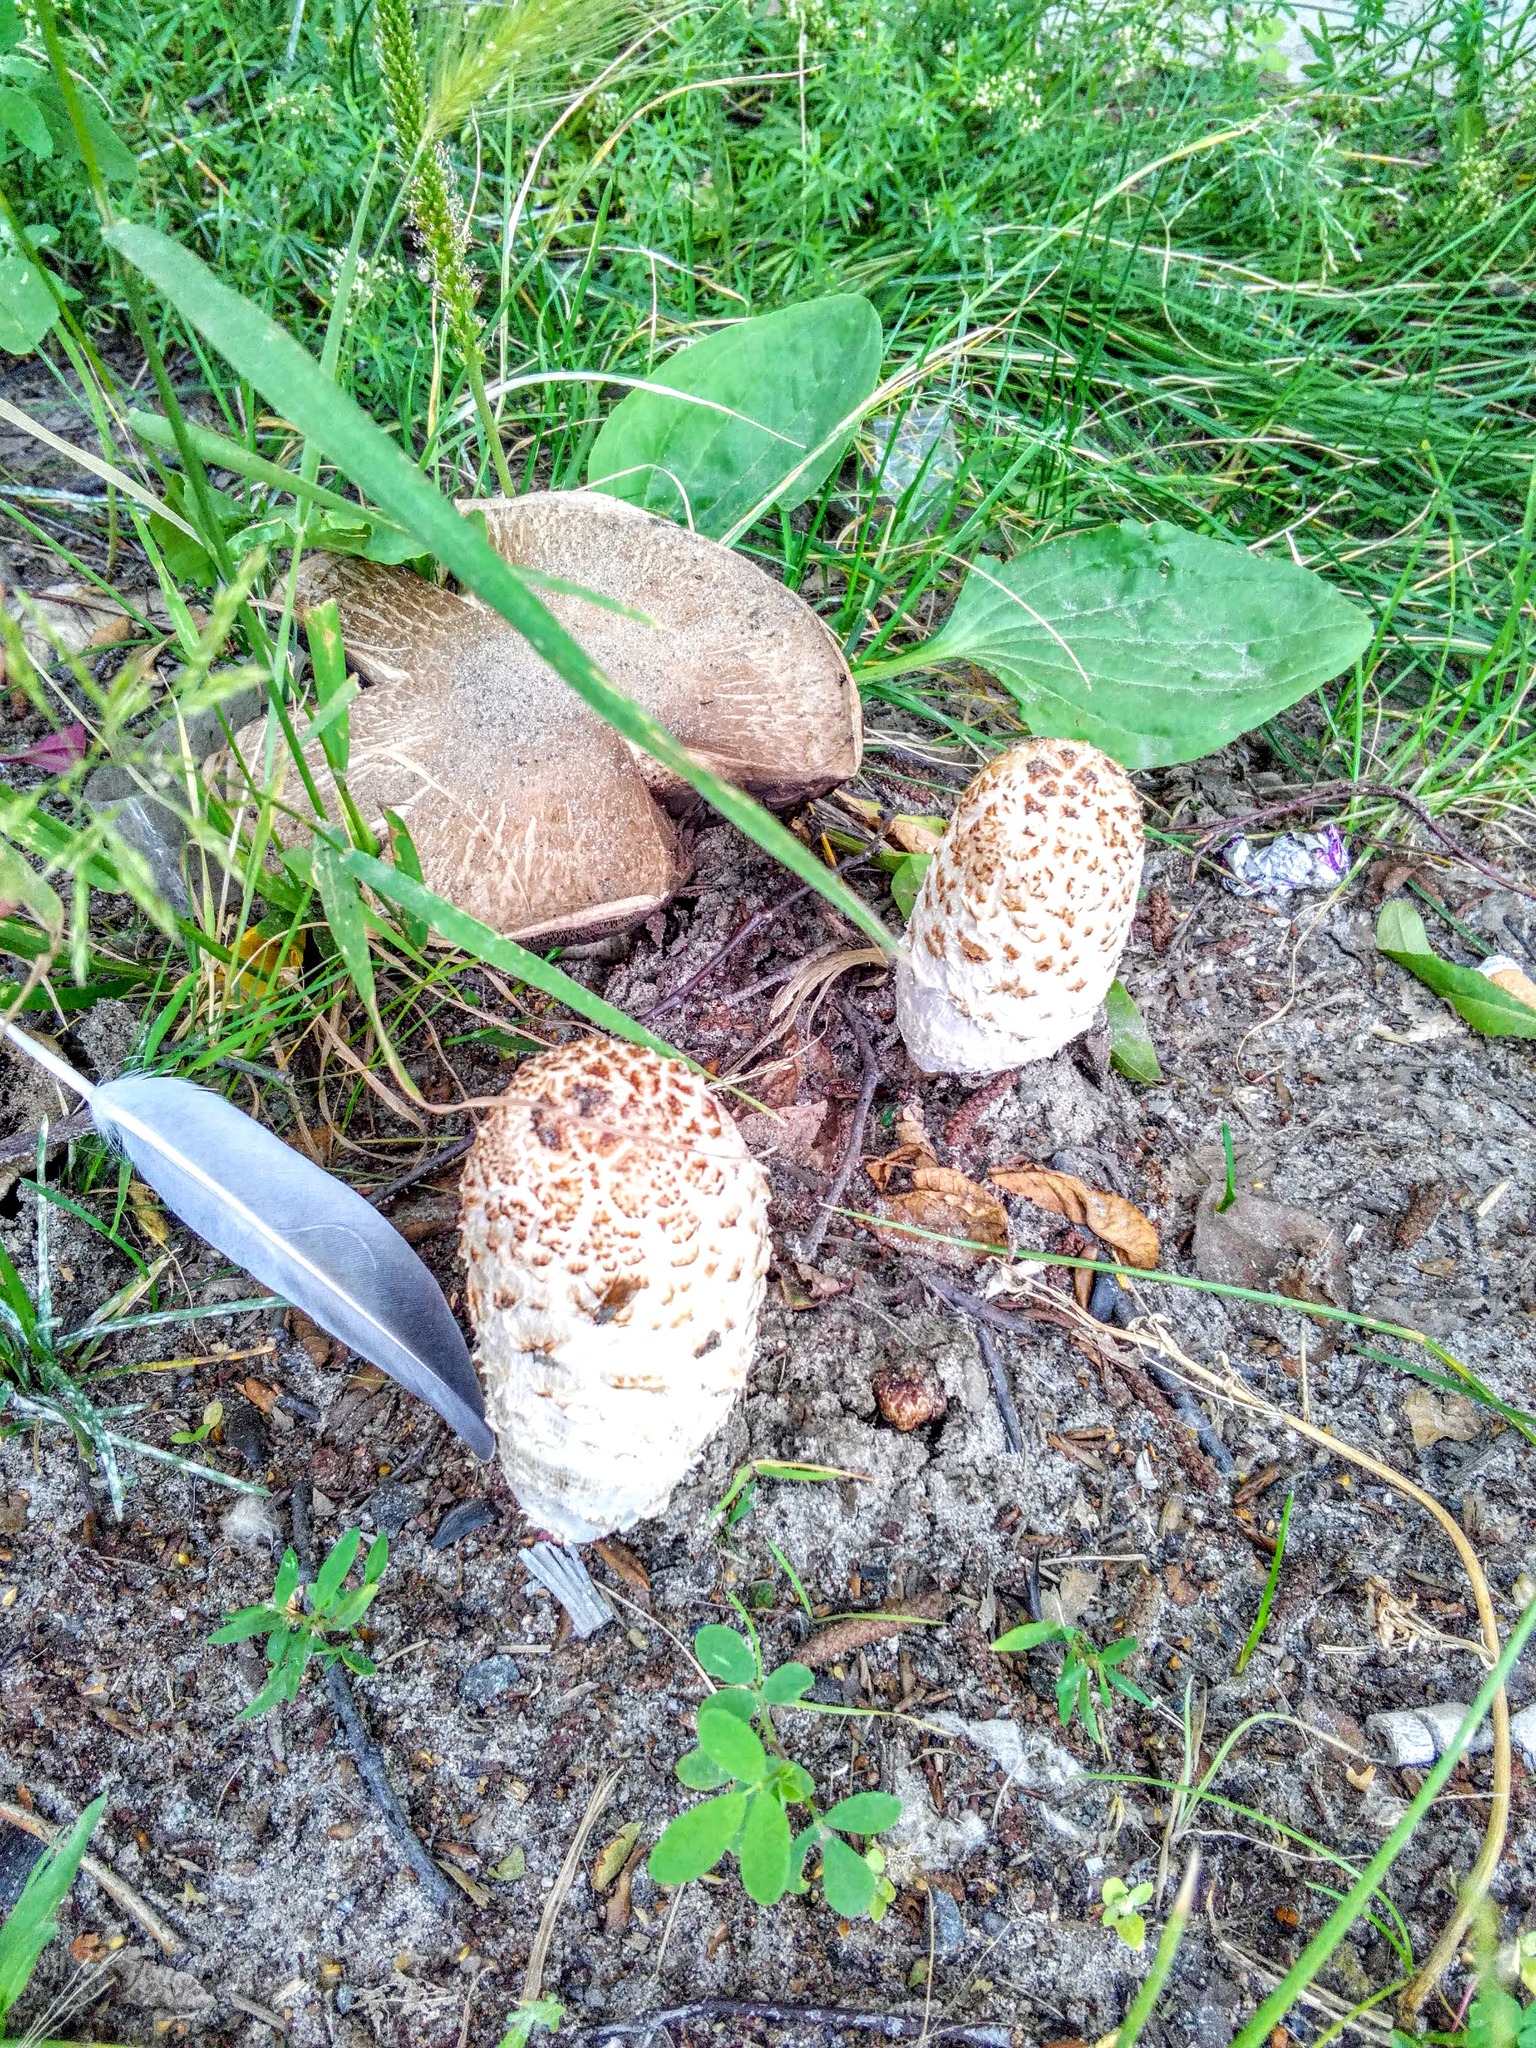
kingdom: Fungi
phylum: Basidiomycota
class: Agaricomycetes
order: Agaricales
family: Agaricaceae
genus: Coprinus
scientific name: Coprinus comatus
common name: Lawyer's wig
